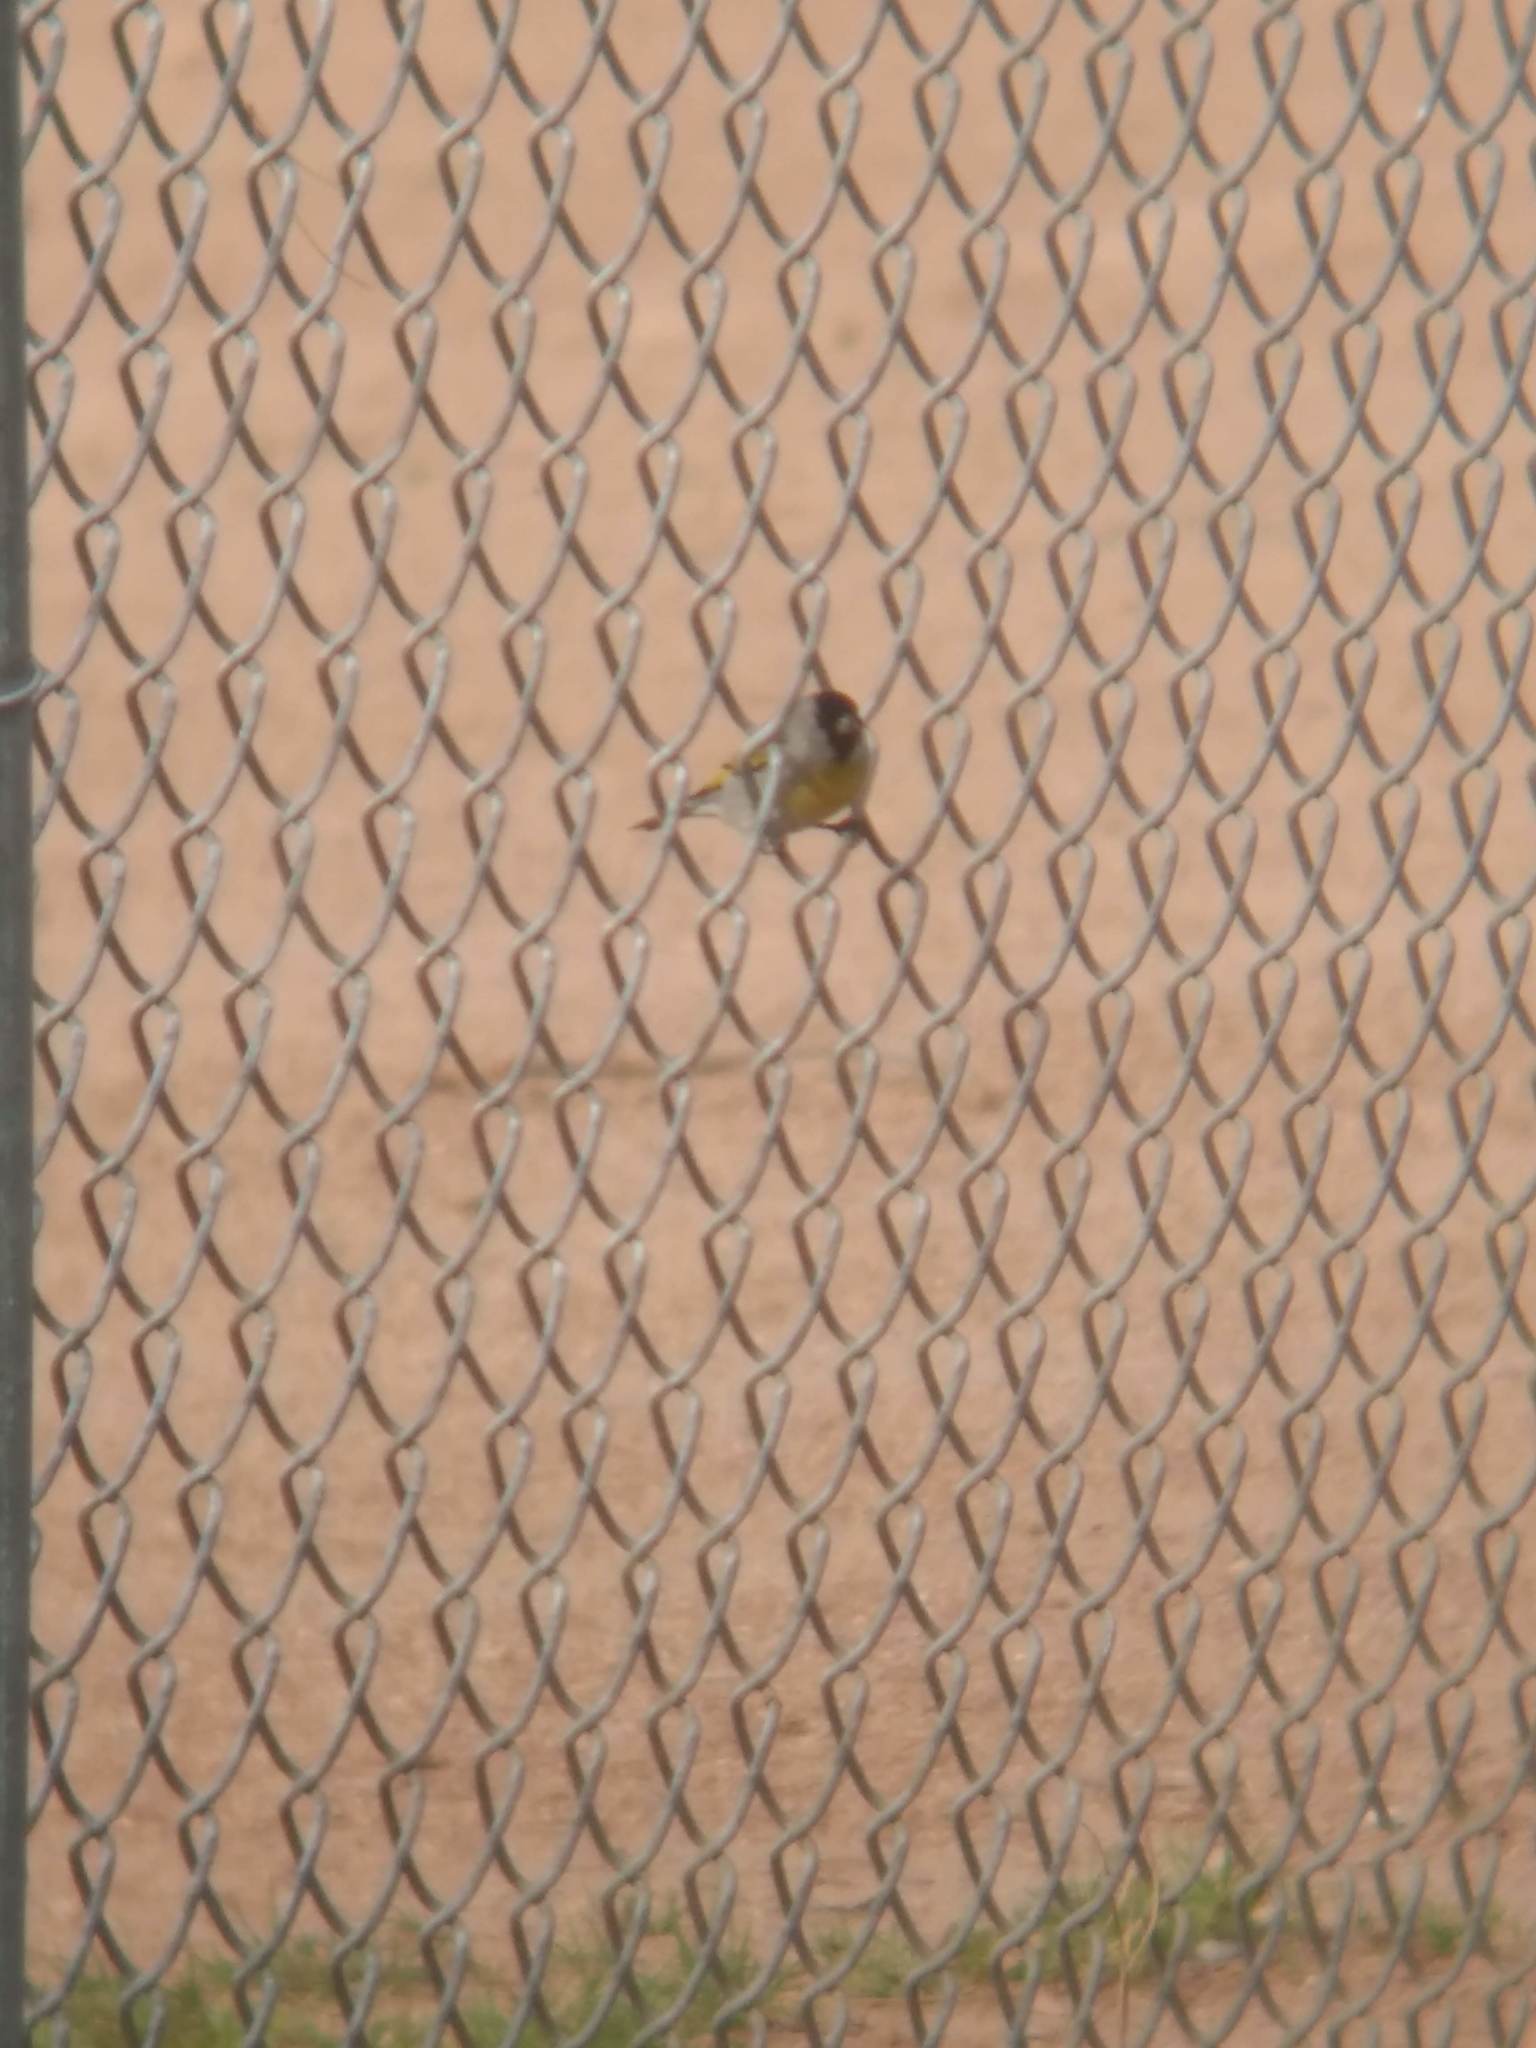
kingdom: Animalia
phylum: Chordata
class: Aves
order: Passeriformes
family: Fringillidae
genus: Spinus
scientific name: Spinus lawrencei
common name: Lawrence's goldfinch
